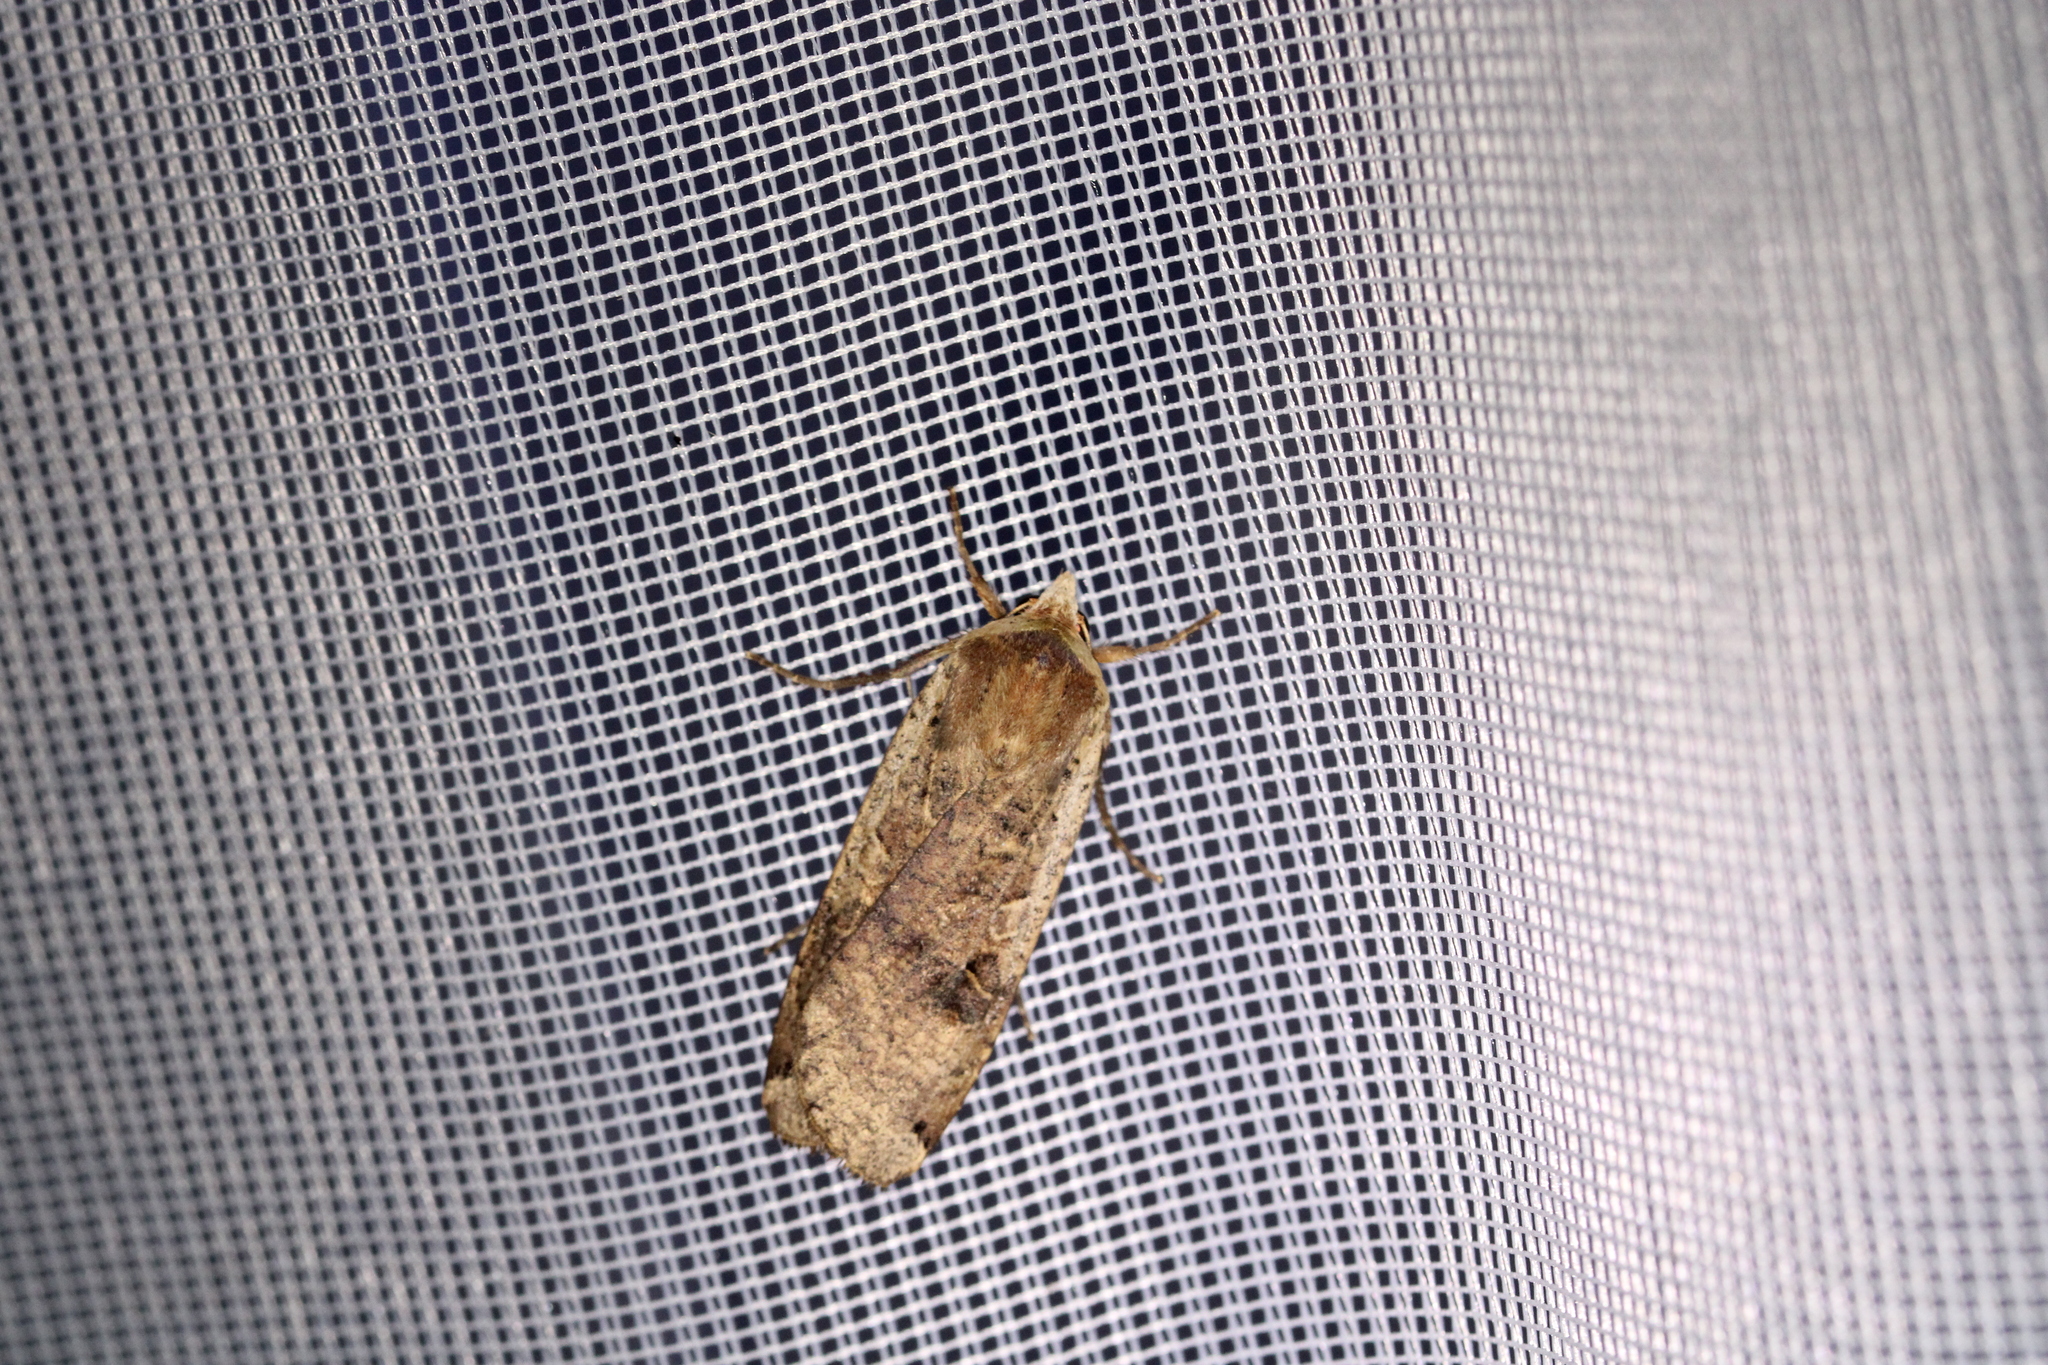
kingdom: Animalia
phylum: Arthropoda
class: Insecta
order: Lepidoptera
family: Noctuidae
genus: Noctua
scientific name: Noctua pronuba
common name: Large yellow underwing
